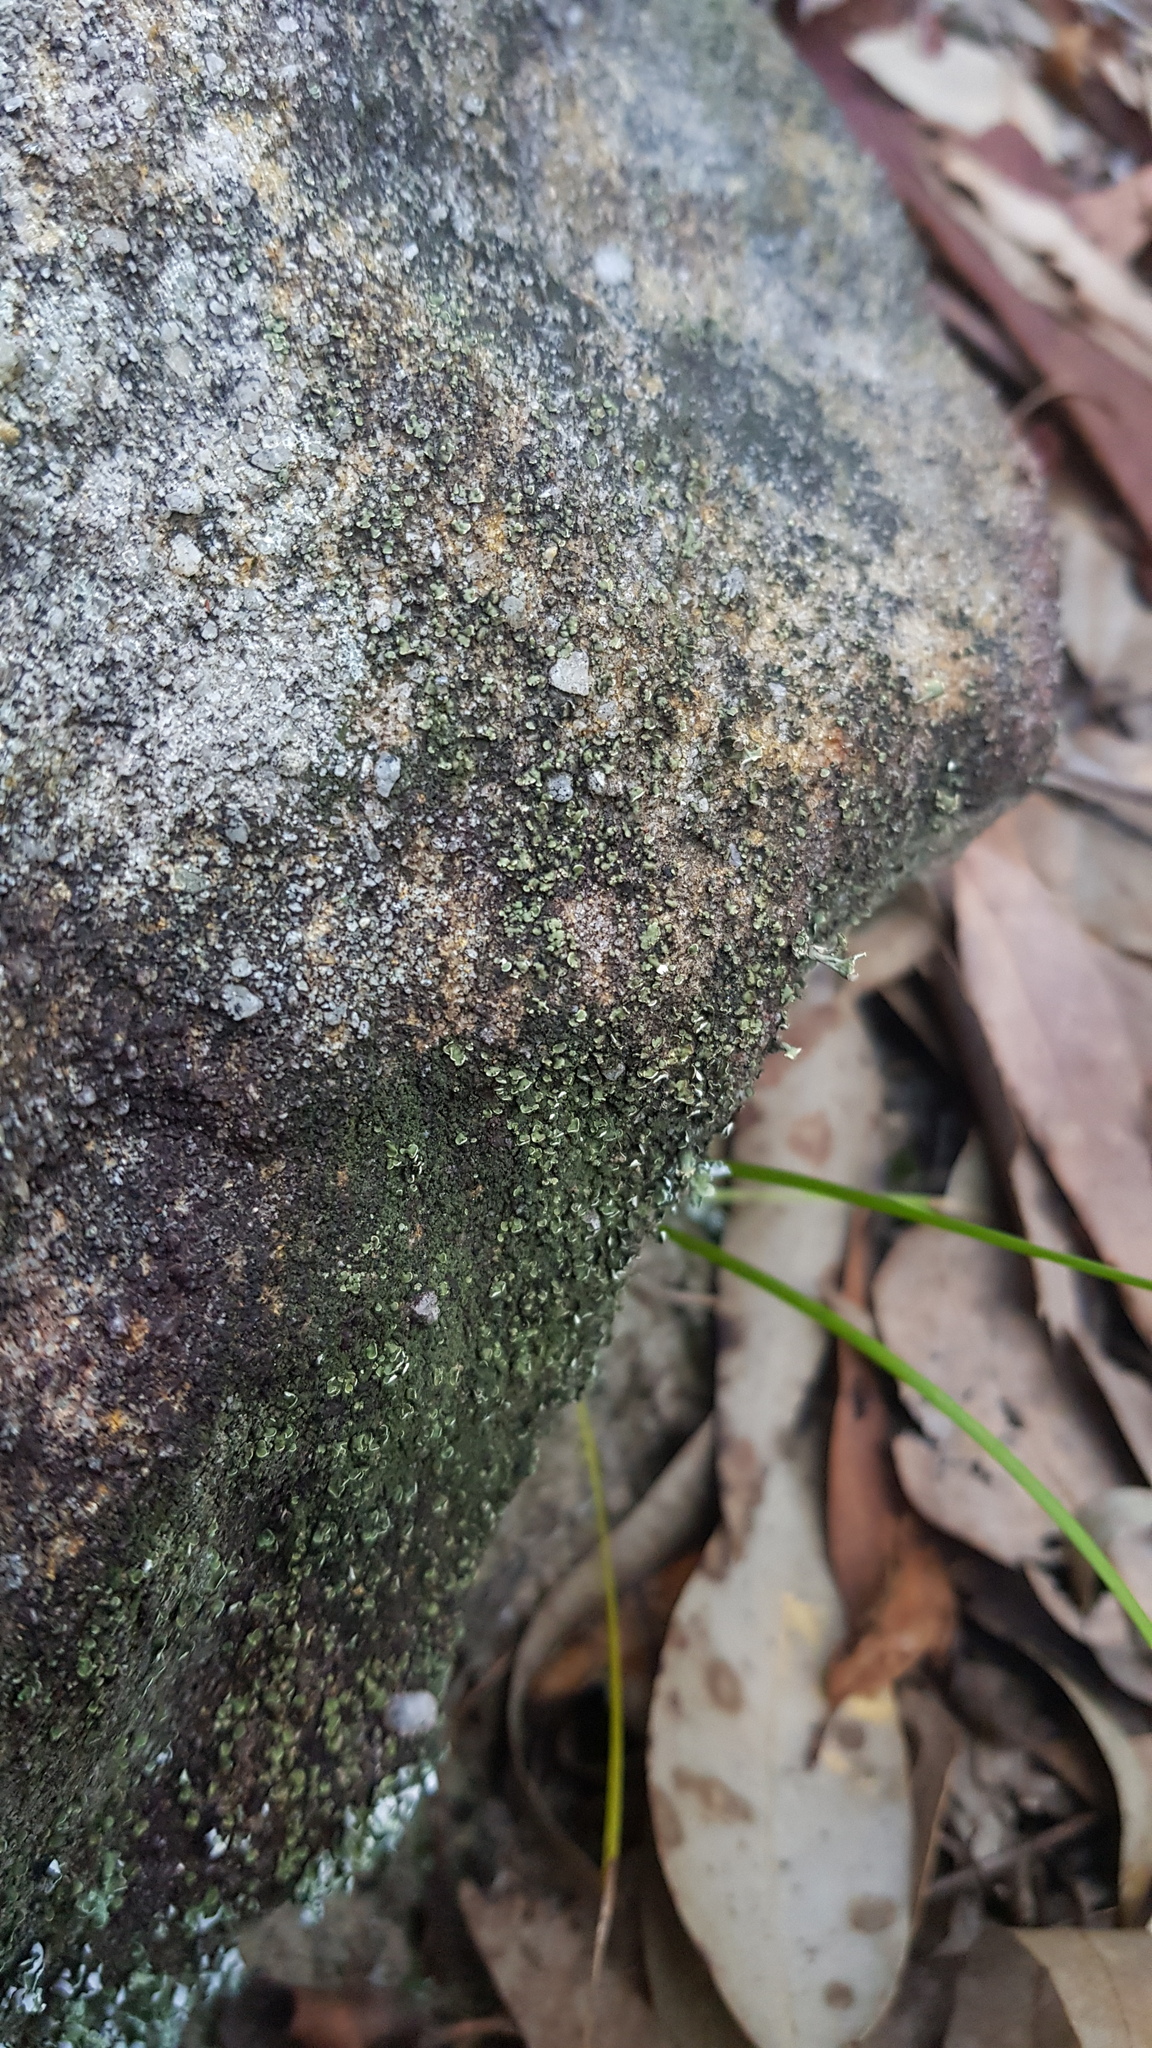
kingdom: Fungi
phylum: Ascomycota
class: Lecanoromycetes
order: Lecanorales
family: Cladoniaceae
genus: Thysanothecium
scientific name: Thysanothecium hookeri
